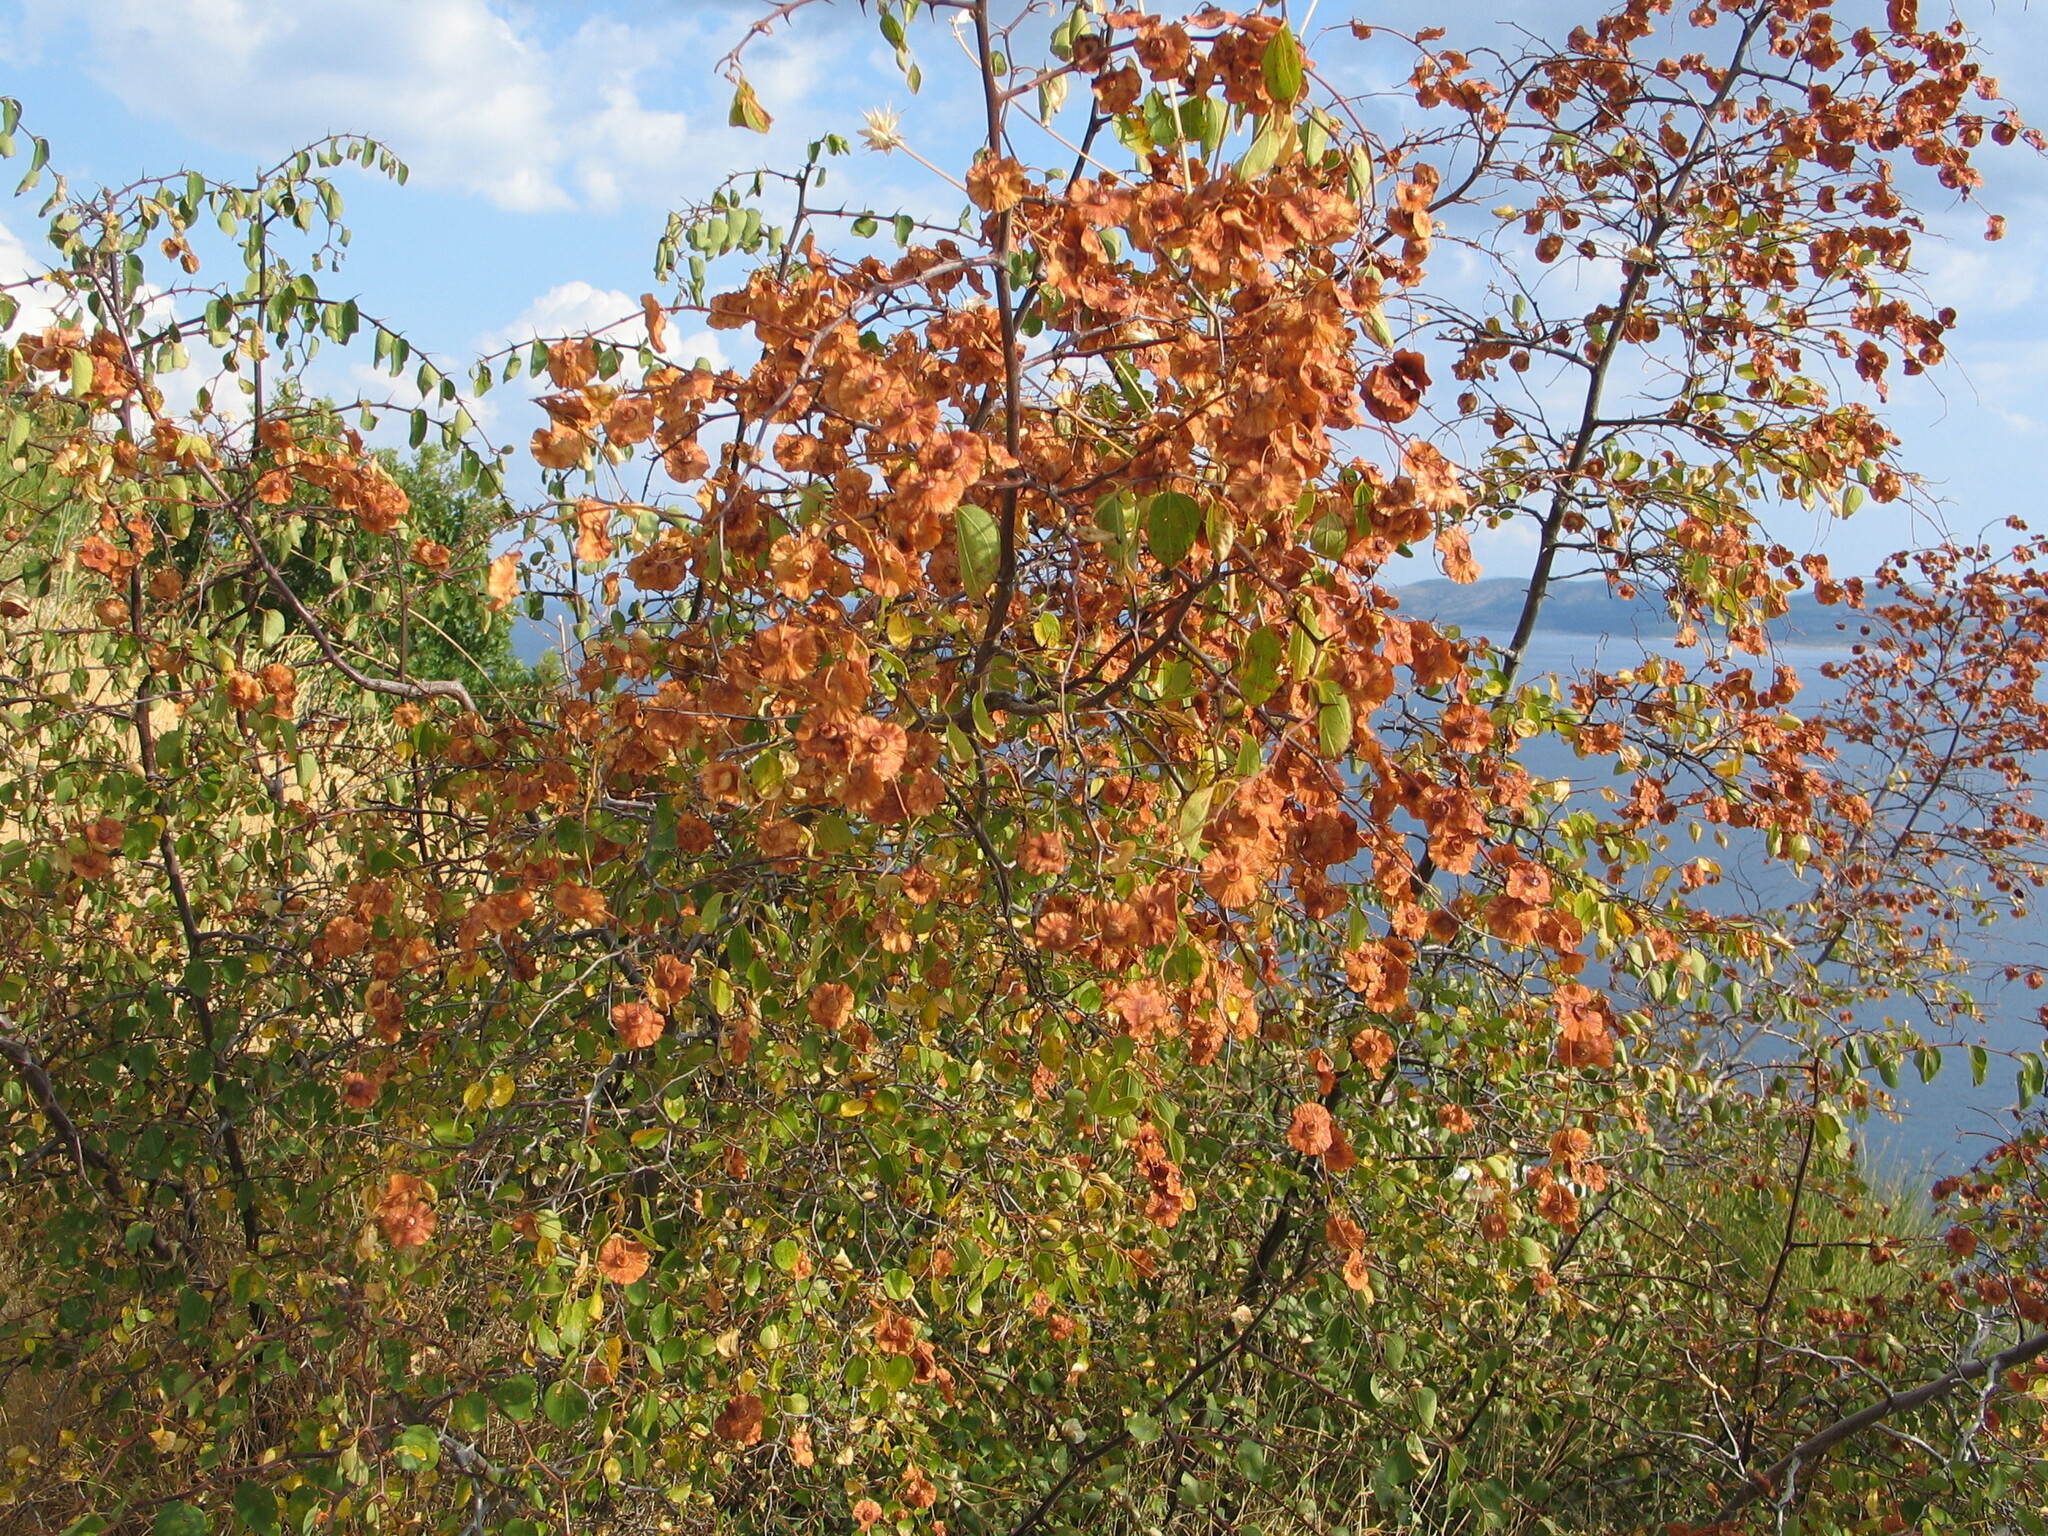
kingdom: Plantae
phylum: Tracheophyta
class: Magnoliopsida
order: Rosales
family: Rhamnaceae
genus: Paliurus
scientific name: Paliurus spina-christi
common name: Jeruselem thorn
